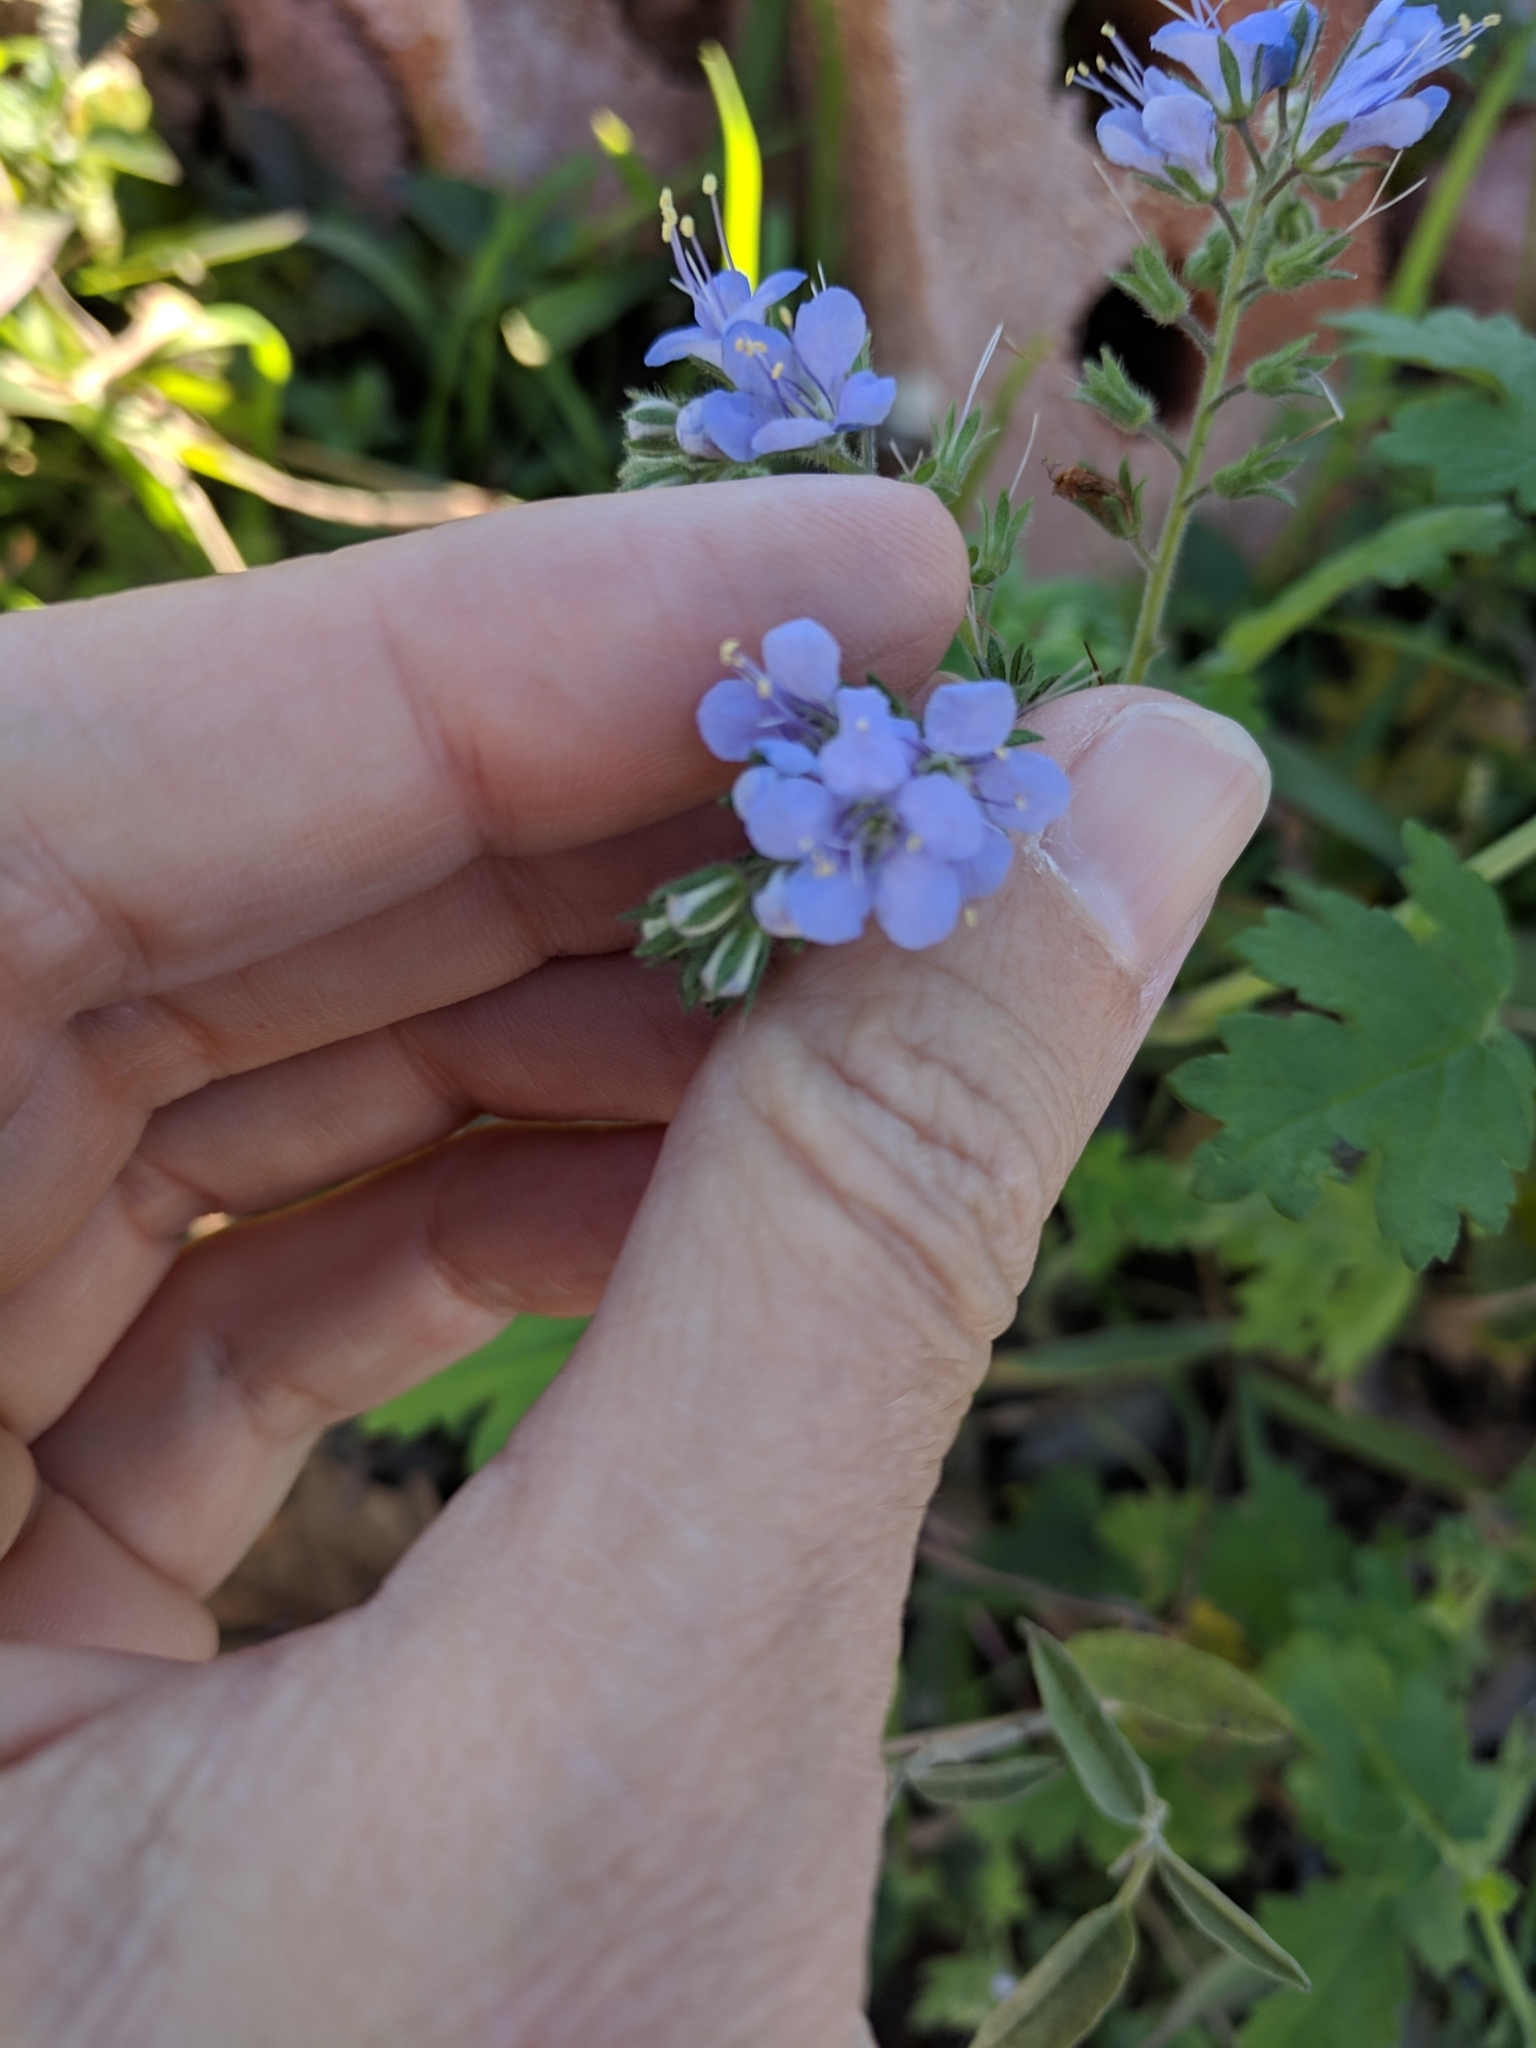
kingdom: Plantae
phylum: Tracheophyta
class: Magnoliopsida
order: Boraginales
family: Hydrophyllaceae
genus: Phacelia
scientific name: Phacelia congesta
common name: Blue curls
